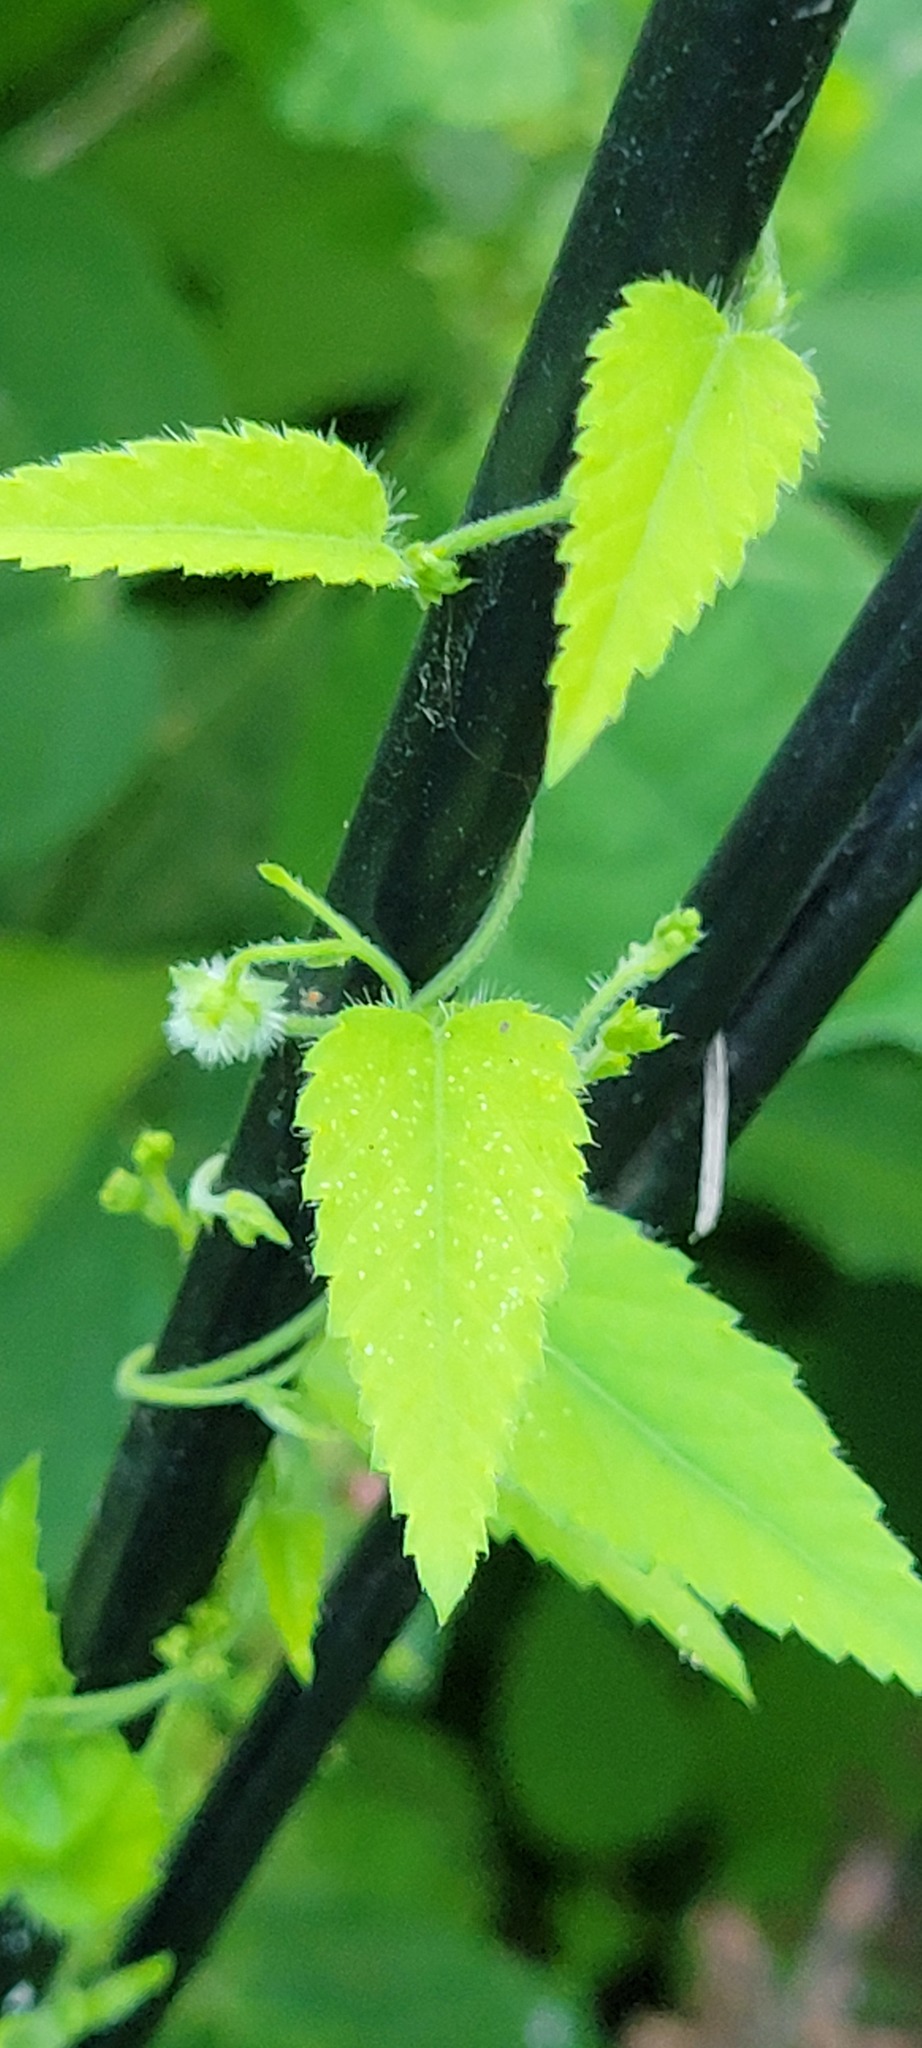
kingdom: Plantae
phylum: Tracheophyta
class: Magnoliopsida
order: Malpighiales
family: Euphorbiaceae
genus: Tragia
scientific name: Tragia glanduligera
